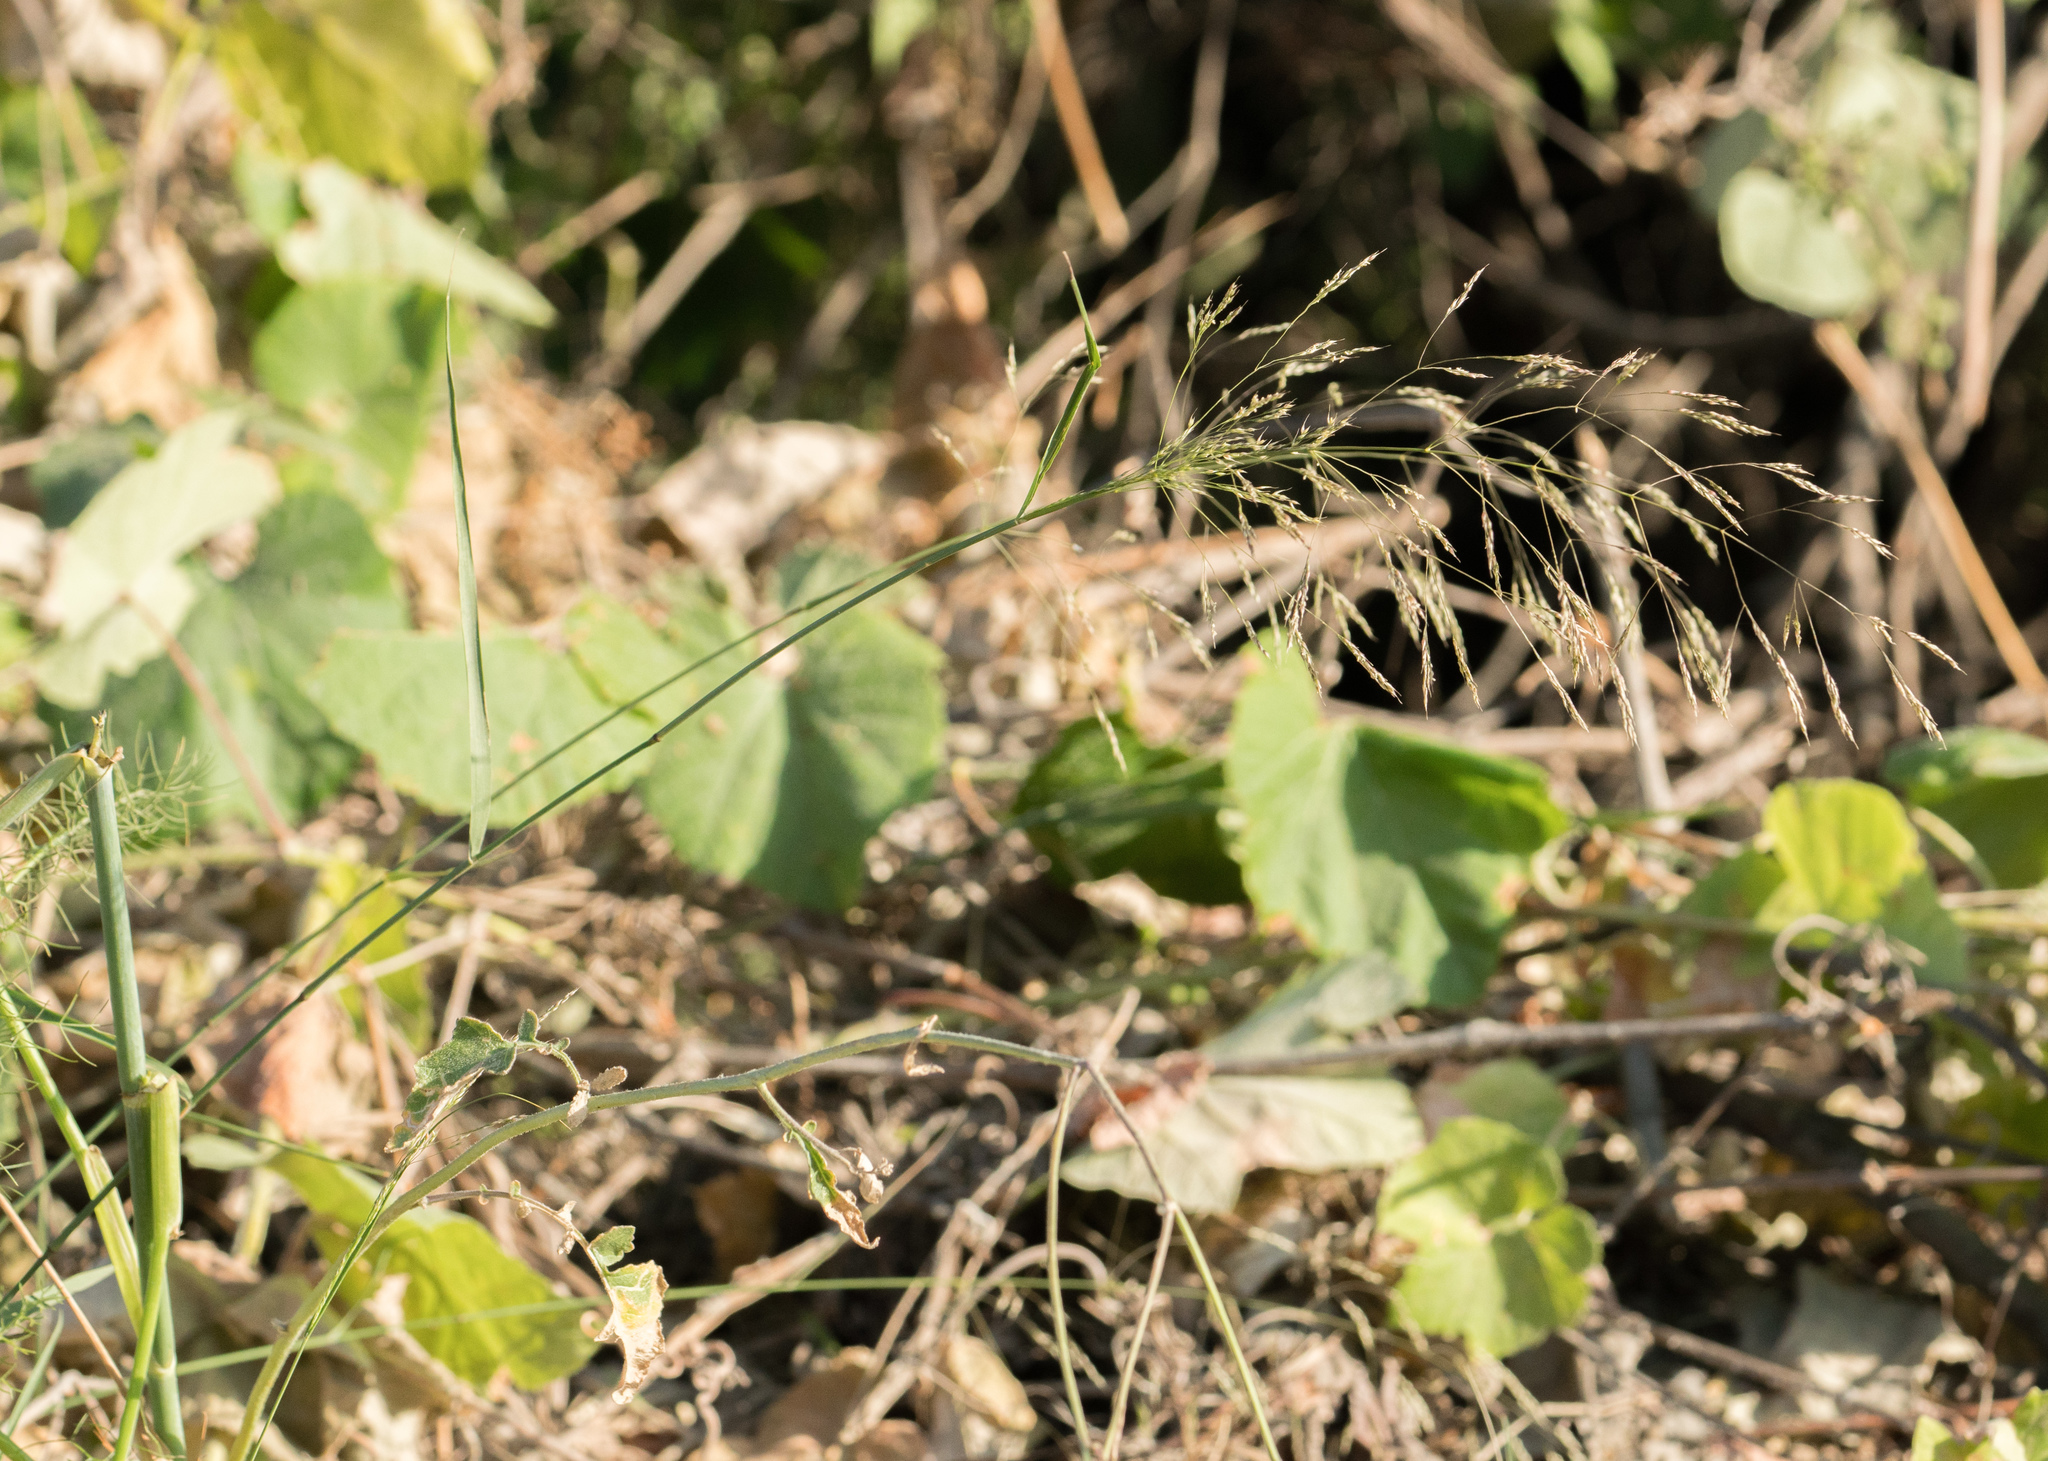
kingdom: Plantae
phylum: Tracheophyta
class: Liliopsida
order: Poales
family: Poaceae
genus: Oloptum
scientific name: Oloptum miliaceum
